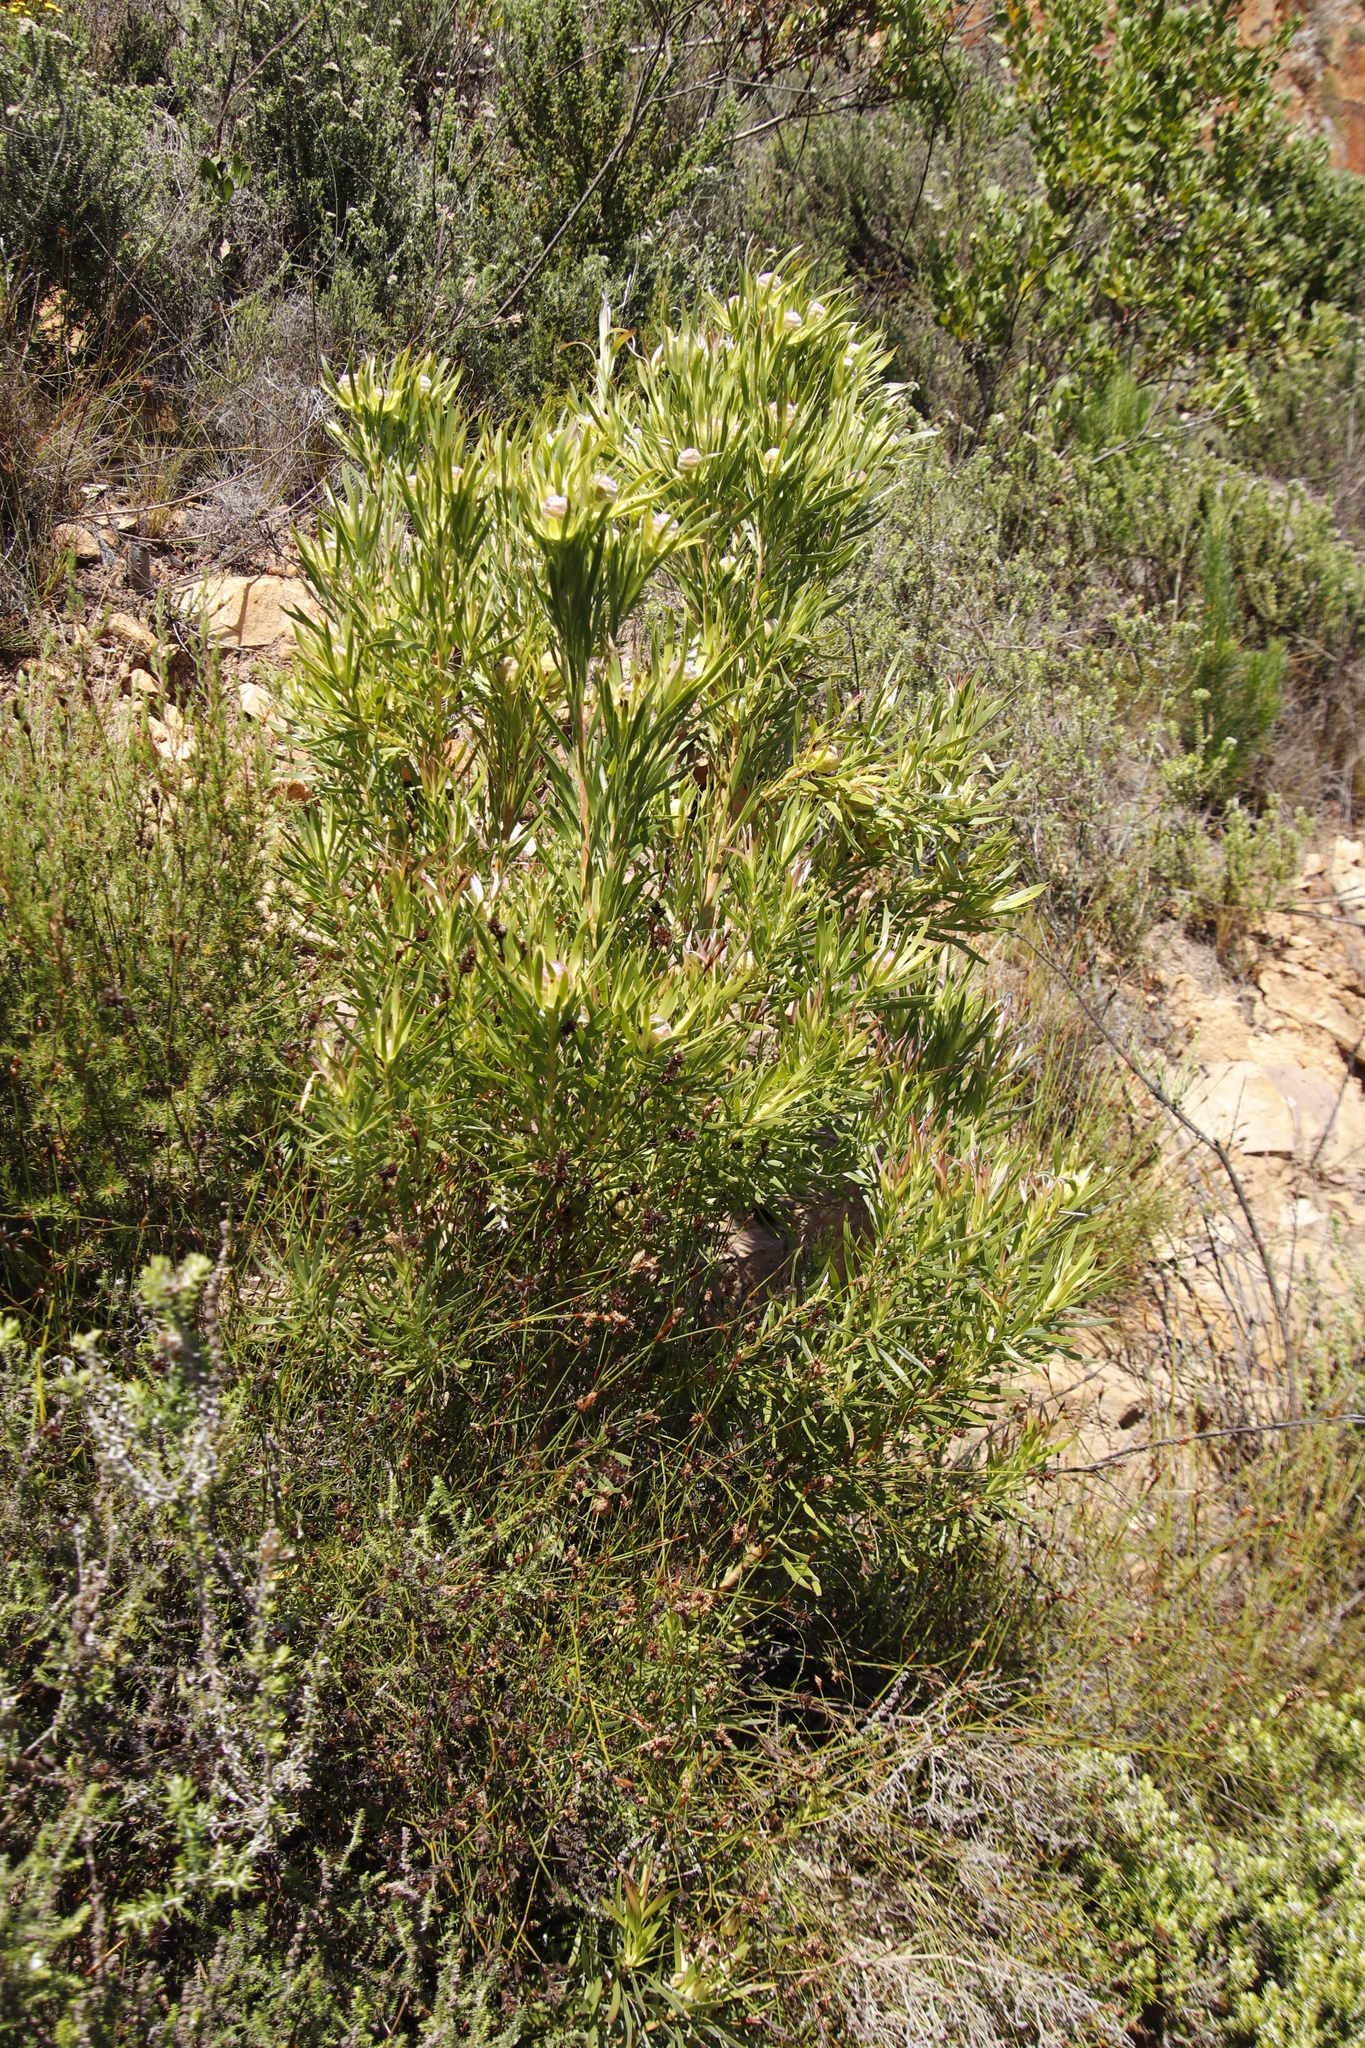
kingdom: Plantae
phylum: Tracheophyta
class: Magnoliopsida
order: Proteales
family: Proteaceae
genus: Leucadendron
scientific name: Leucadendron xanthoconus
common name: Sickle-leaf conebush
